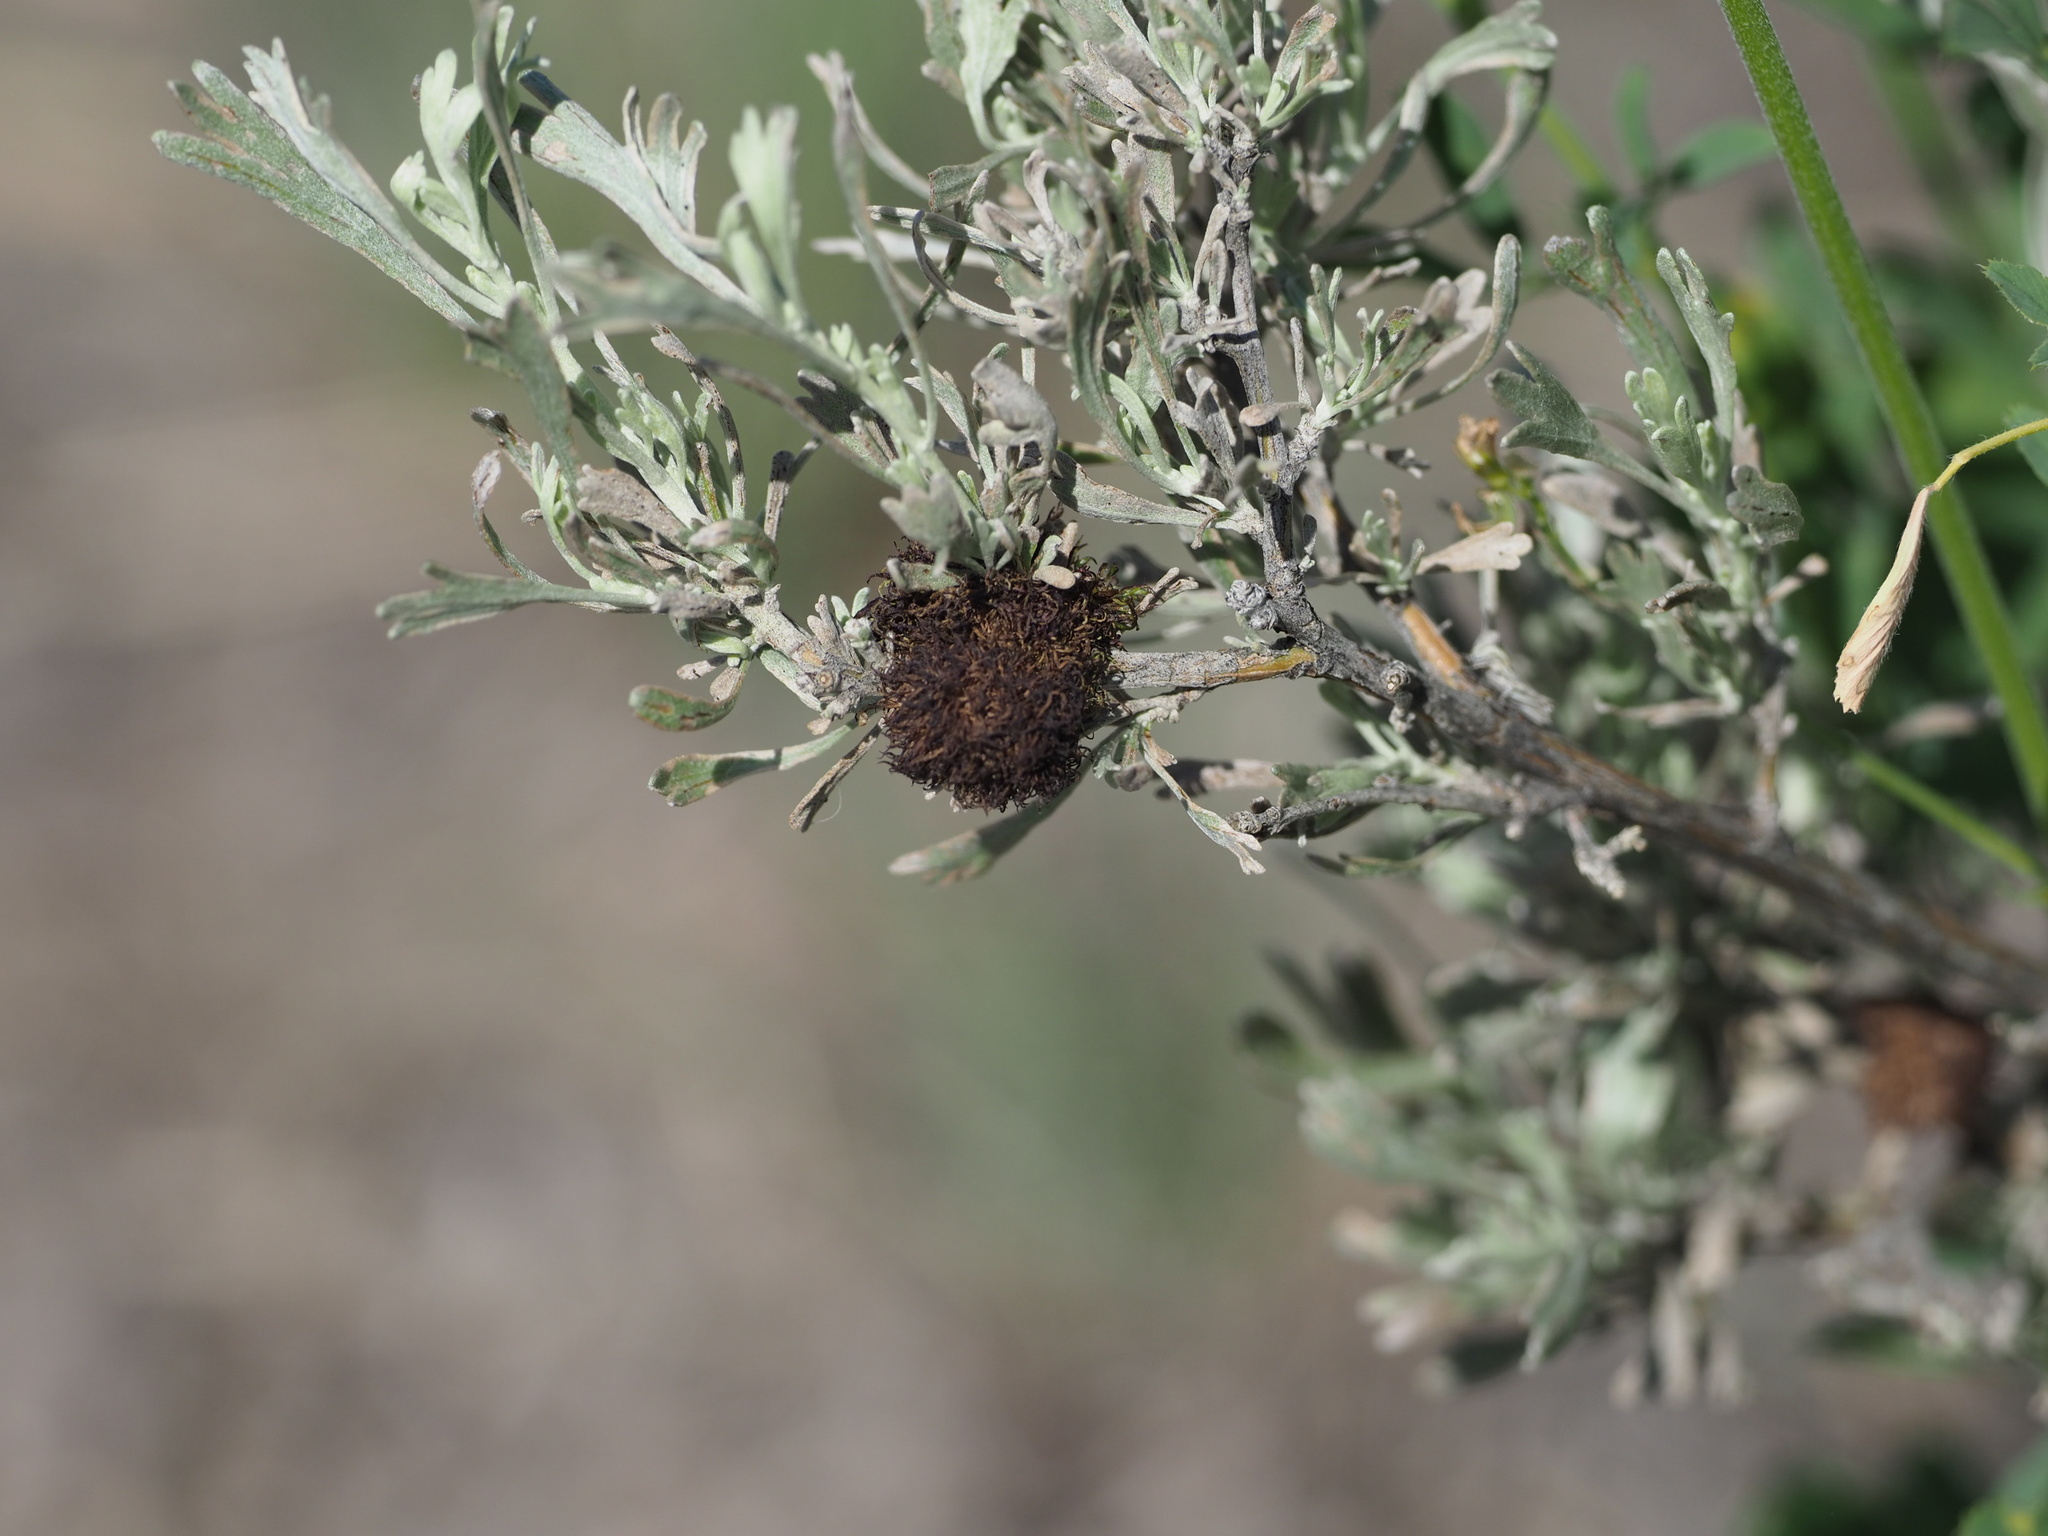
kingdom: Animalia
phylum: Arthropoda
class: Insecta
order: Diptera
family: Cecidomyiidae
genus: Rhopalomyia
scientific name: Rhopalomyia medusa
